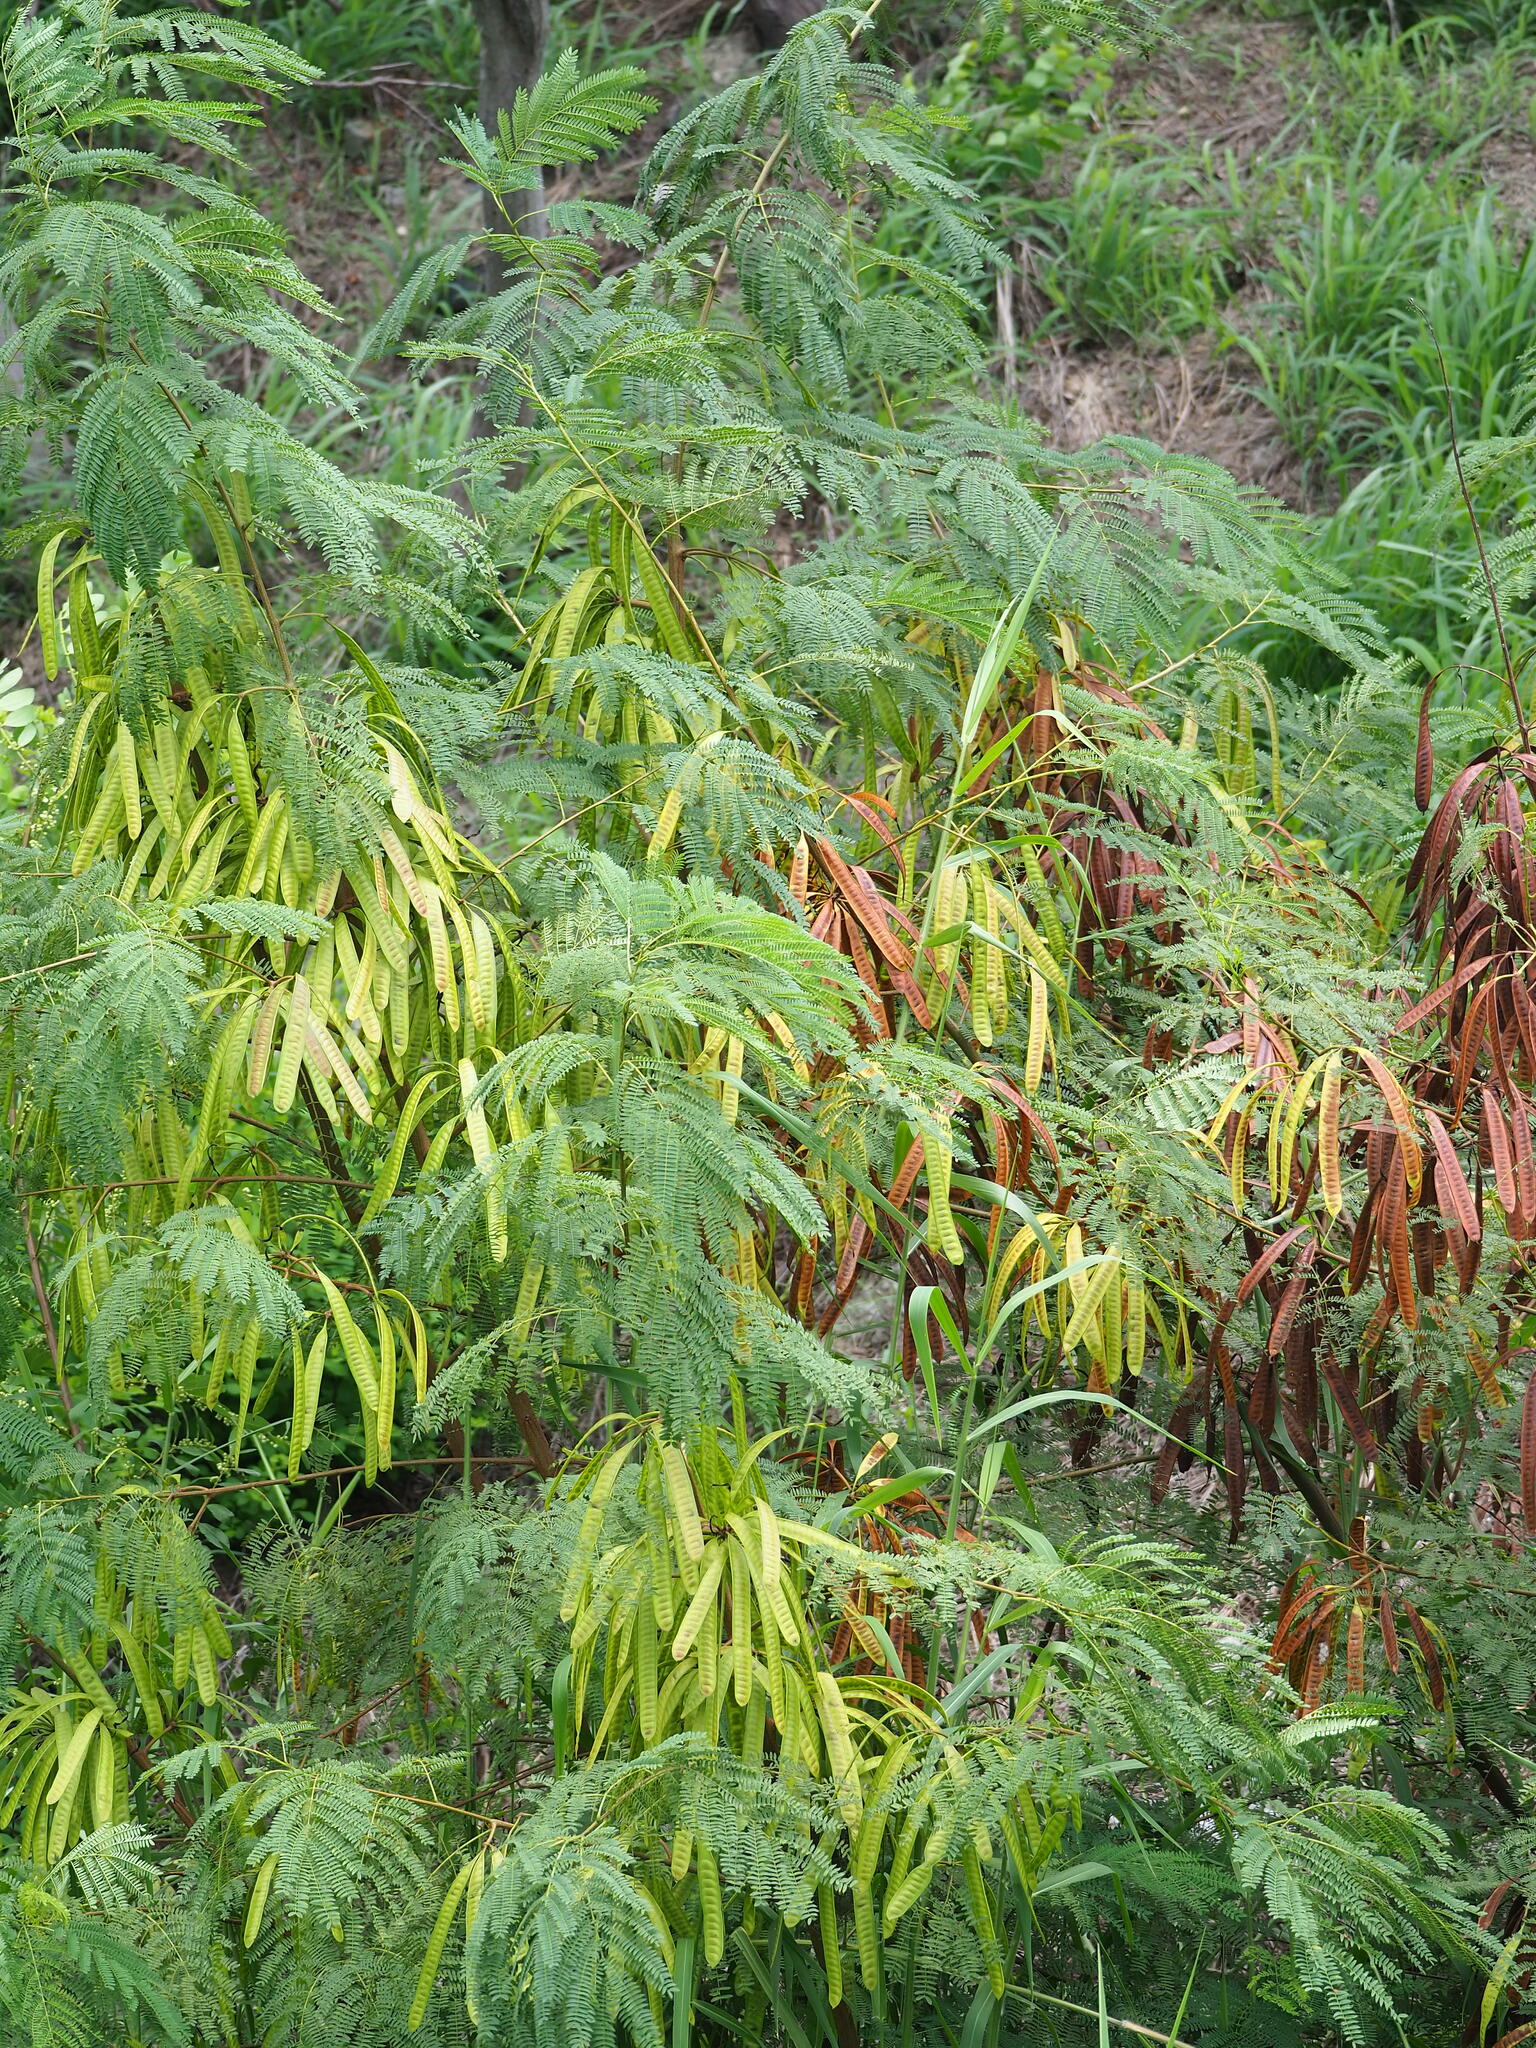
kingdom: Plantae
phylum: Tracheophyta
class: Magnoliopsida
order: Fabales
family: Fabaceae
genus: Leucaena
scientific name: Leucaena leucocephala
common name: White leadtree
